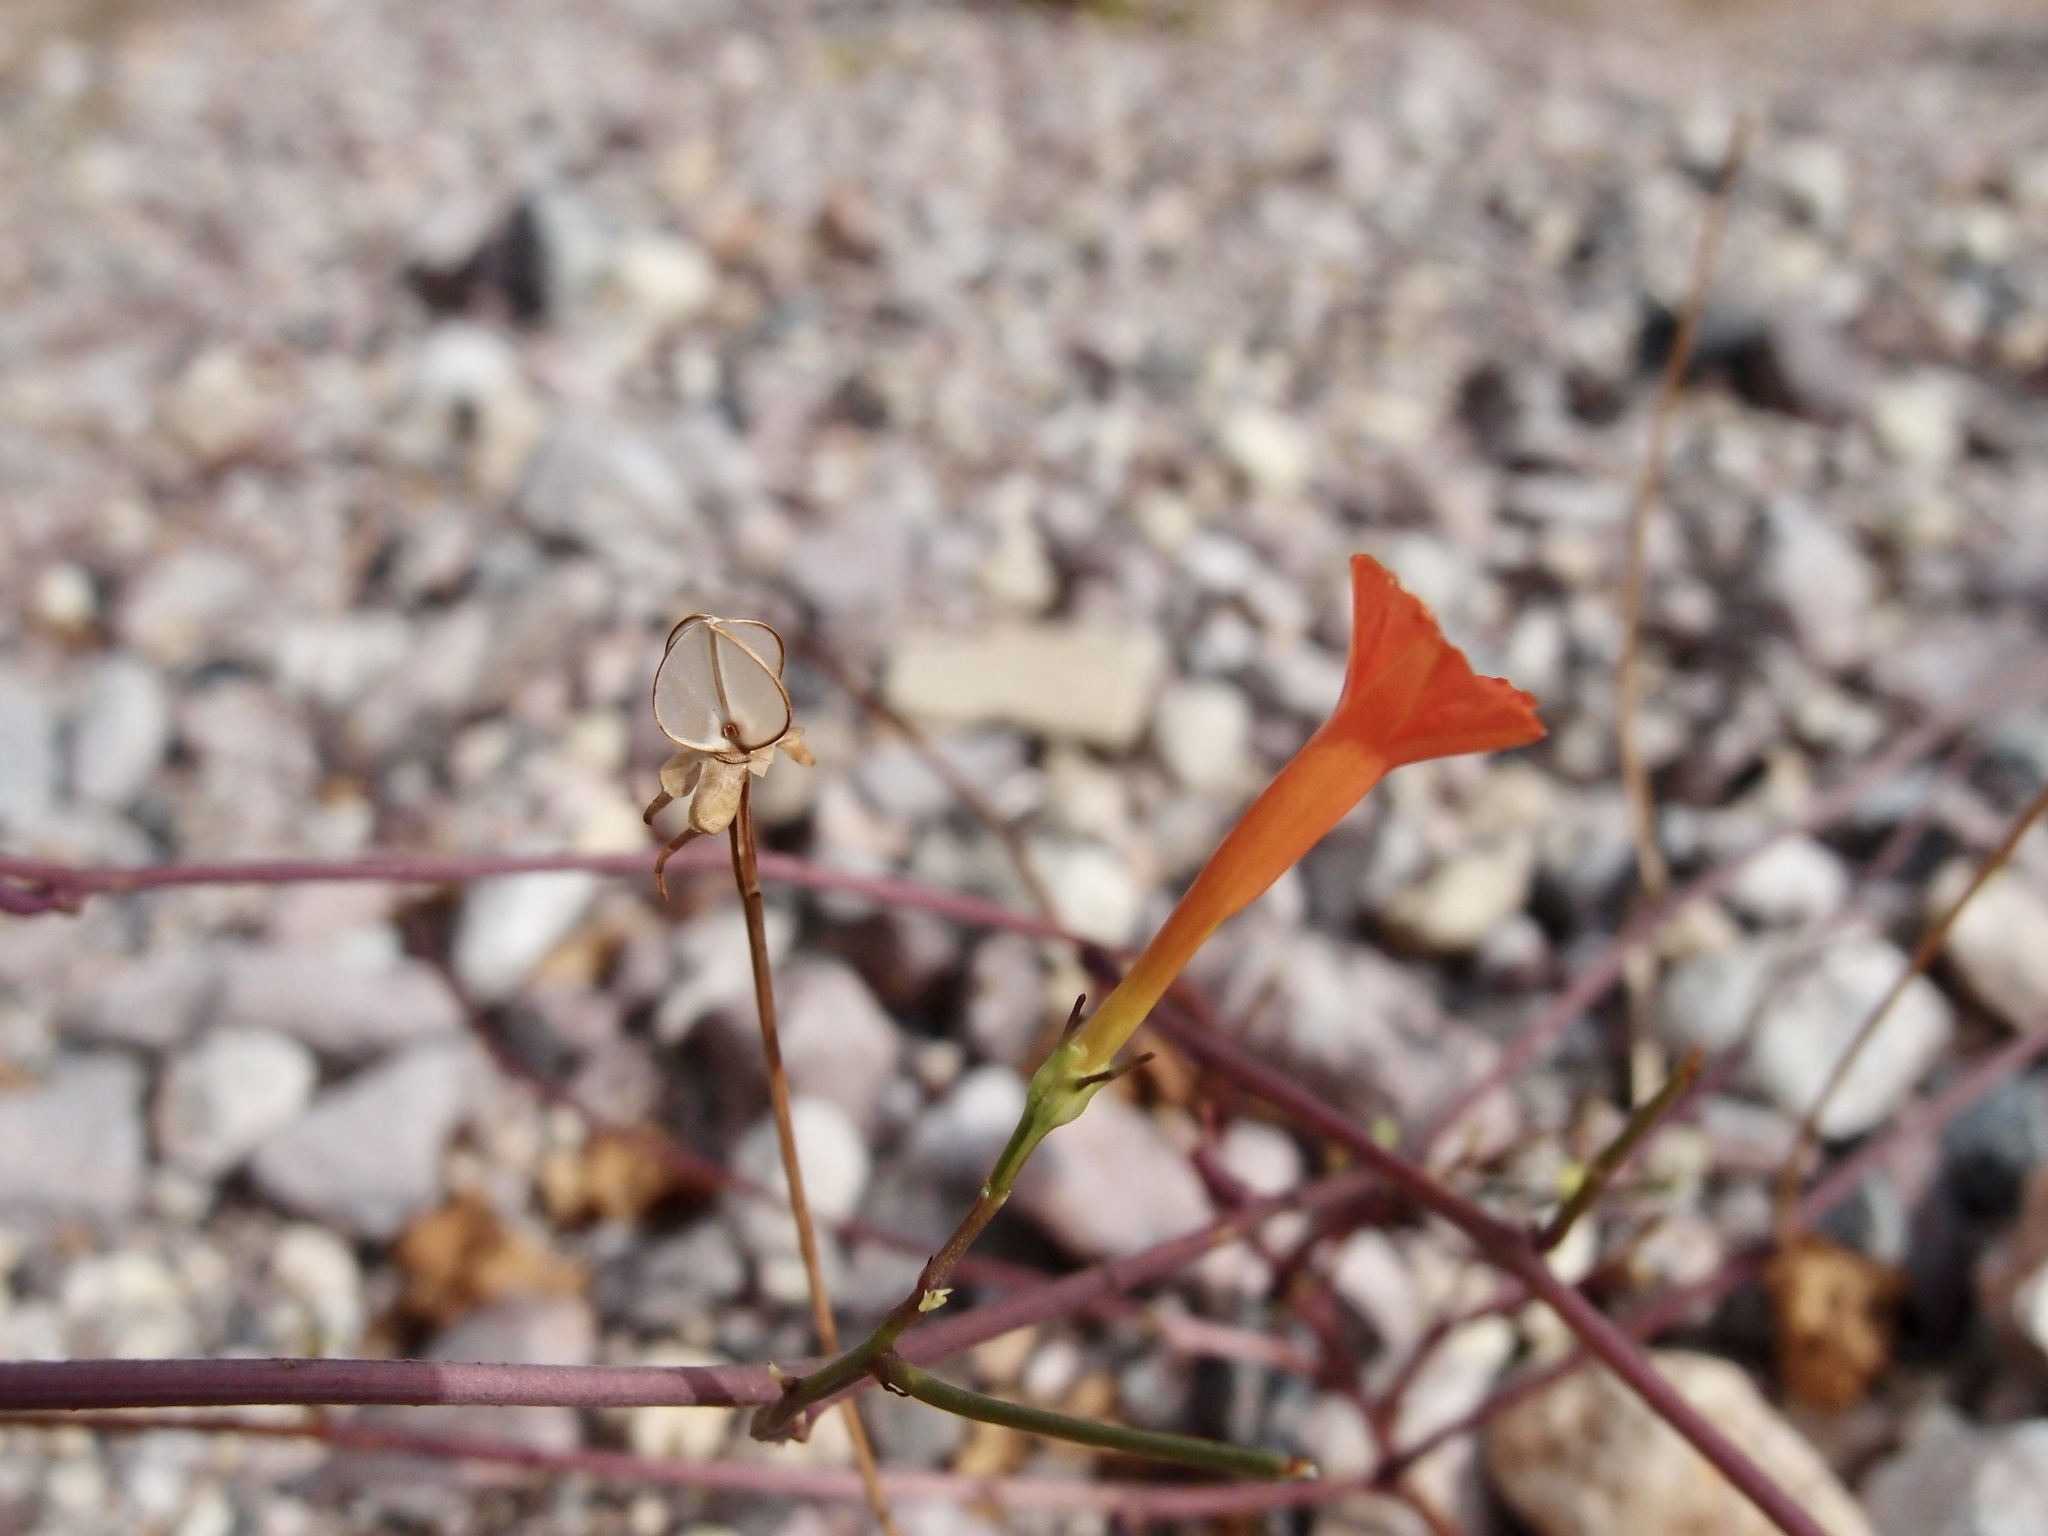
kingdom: Plantae
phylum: Tracheophyta
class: Magnoliopsida
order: Solanales
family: Convolvulaceae
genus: Ipomoea
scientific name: Ipomoea cristulata
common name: Trans-pecos morning-glory
